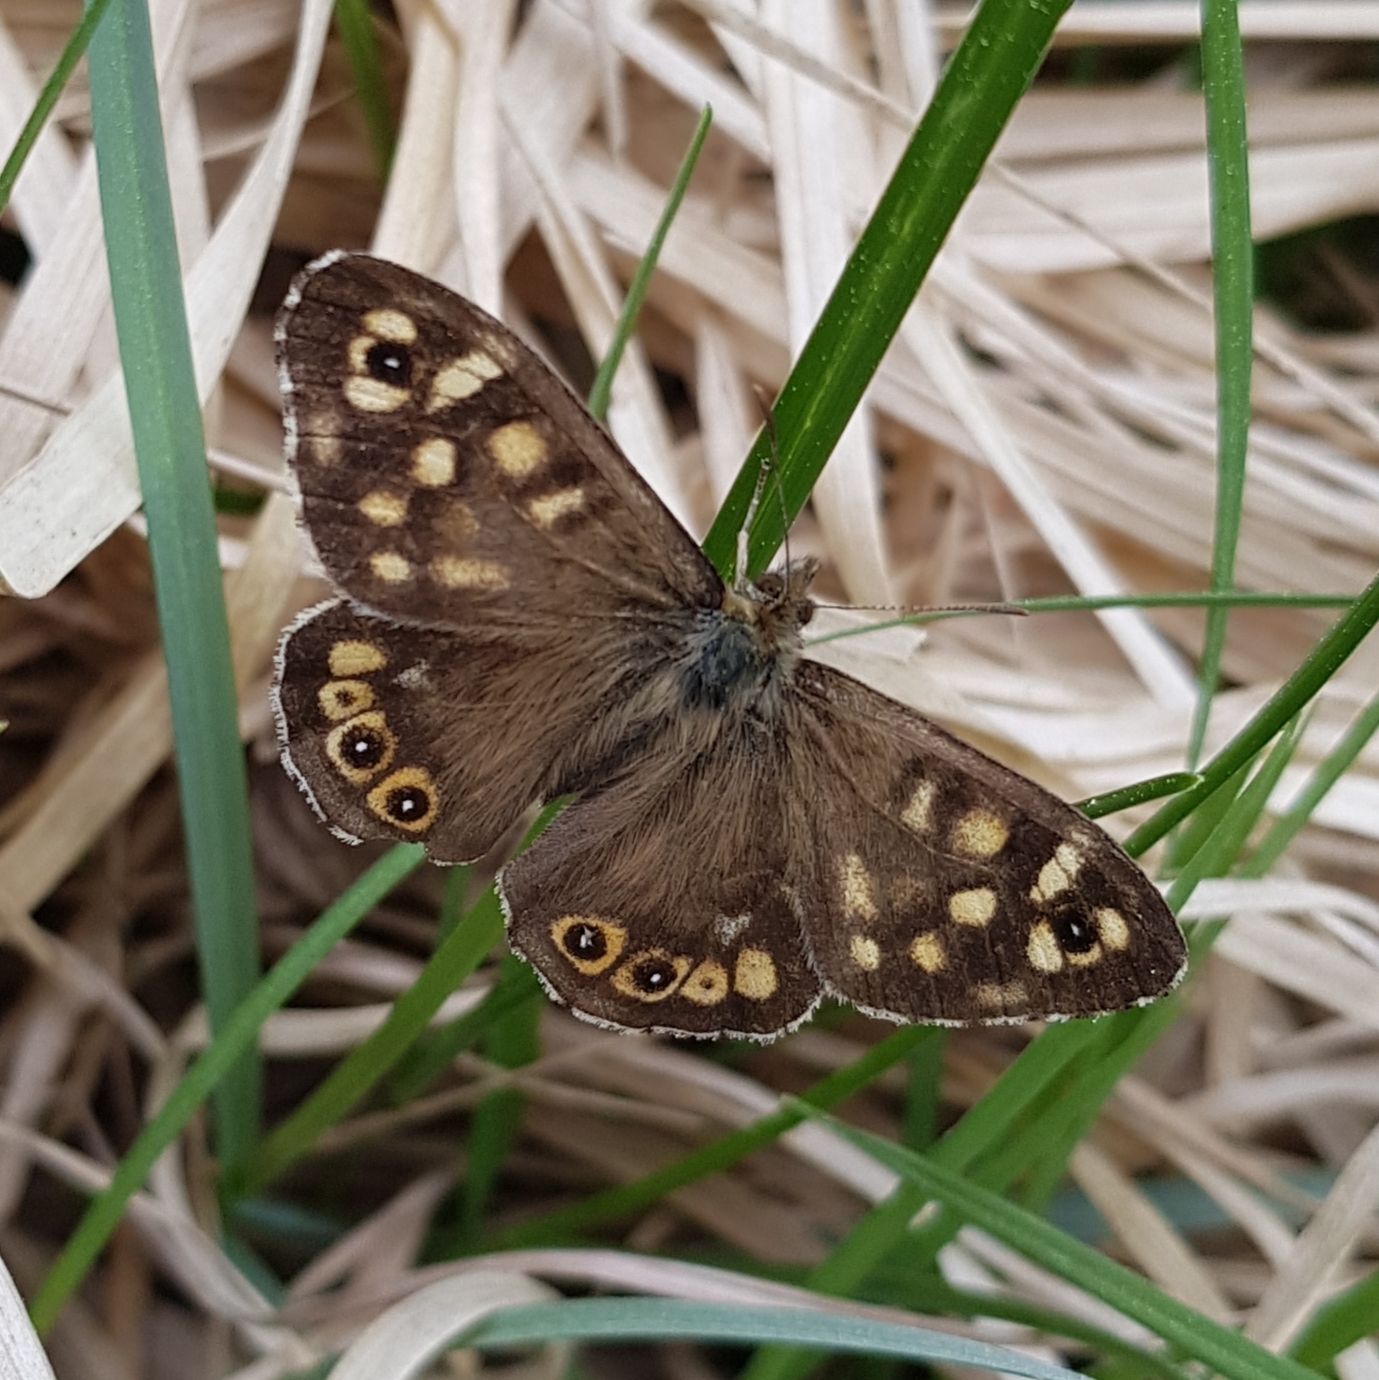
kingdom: Animalia
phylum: Arthropoda
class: Insecta
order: Lepidoptera
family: Nymphalidae
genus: Pararge
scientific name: Pararge aegeria
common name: Speckled wood
